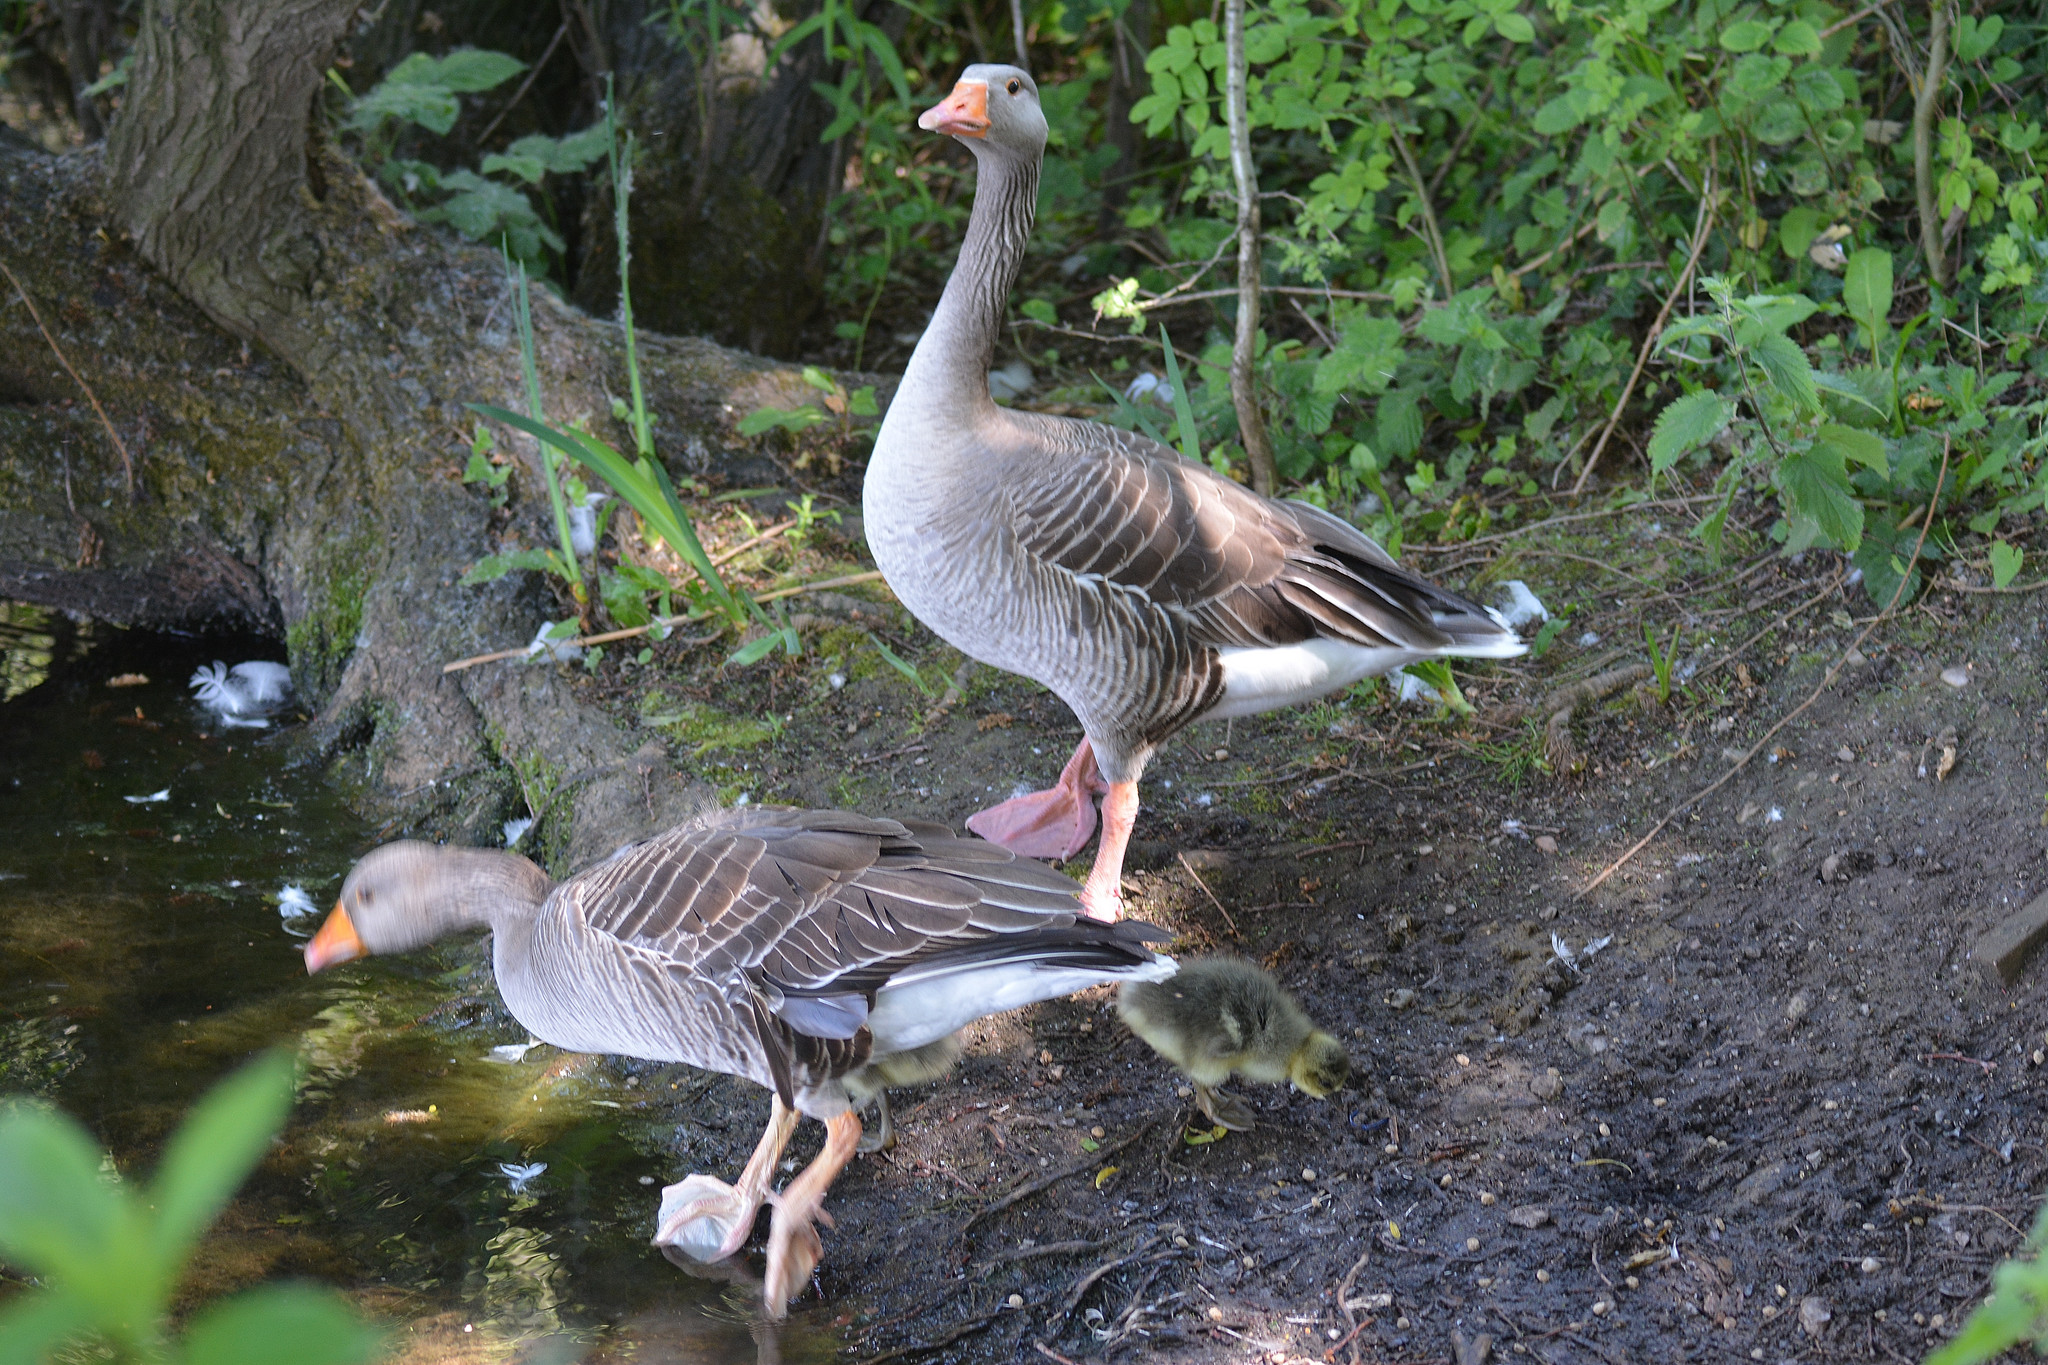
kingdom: Animalia
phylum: Chordata
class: Aves
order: Anseriformes
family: Anatidae
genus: Anser
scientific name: Anser anser
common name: Greylag goose
